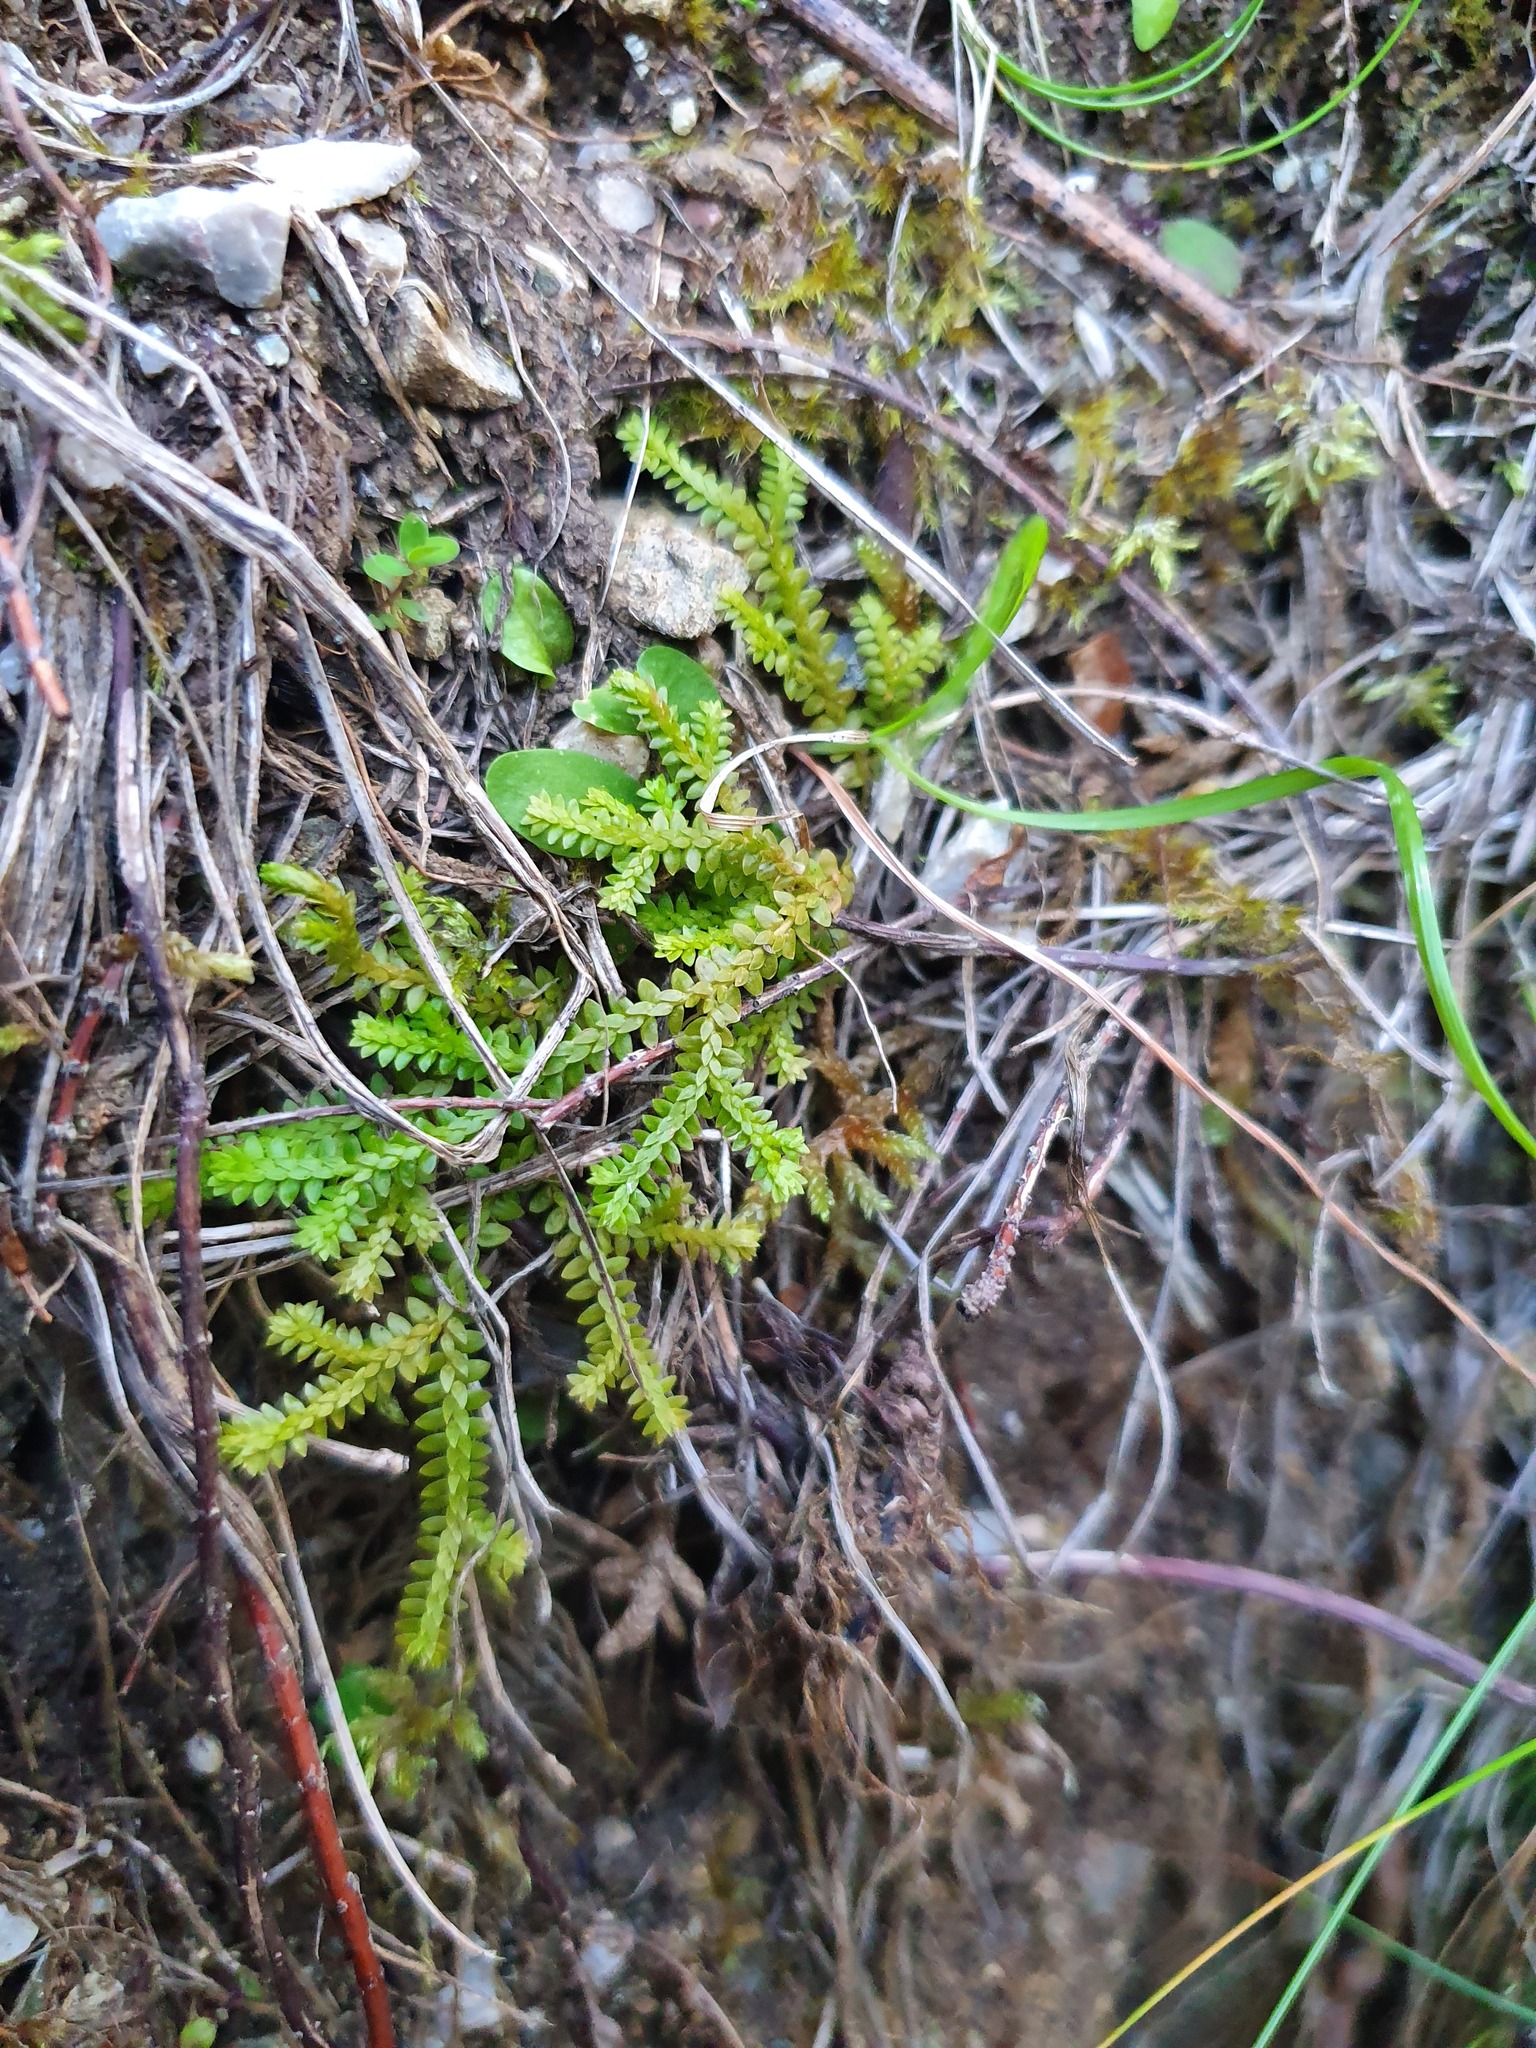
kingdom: Plantae
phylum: Tracheophyta
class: Lycopodiopsida
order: Selaginellales
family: Selaginellaceae
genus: Selaginella
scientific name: Selaginella helvetica
